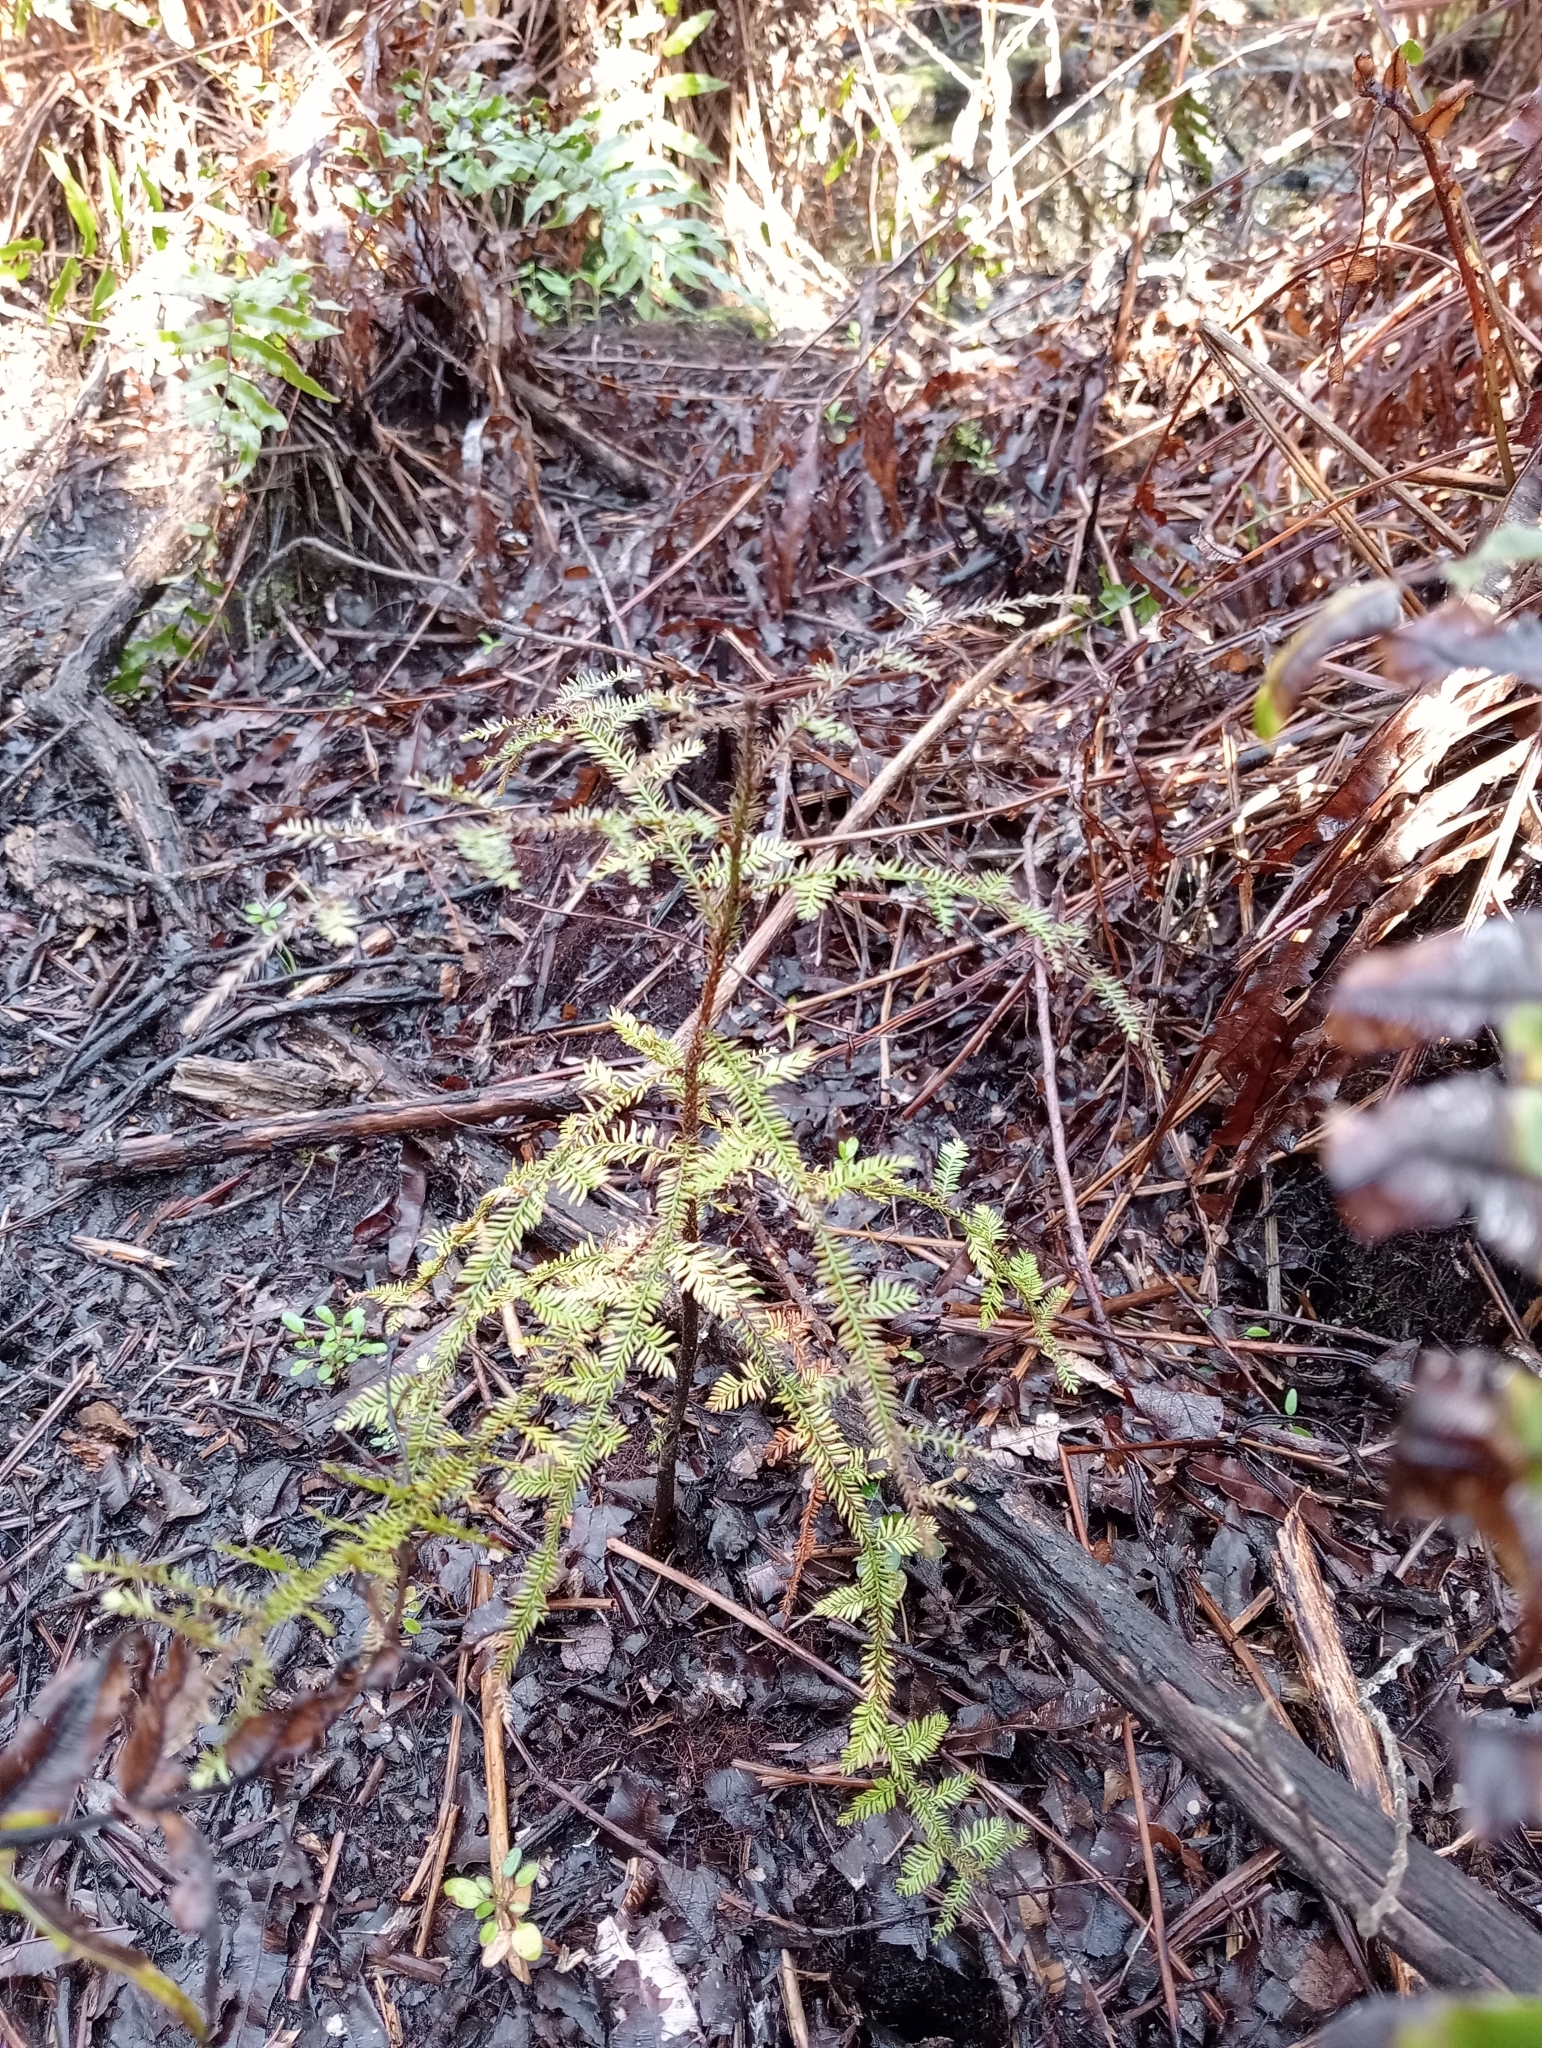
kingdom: Plantae
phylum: Tracheophyta
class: Pinopsida
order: Pinales
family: Podocarpaceae
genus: Dacrycarpus
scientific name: Dacrycarpus dacrydioides
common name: White pine
